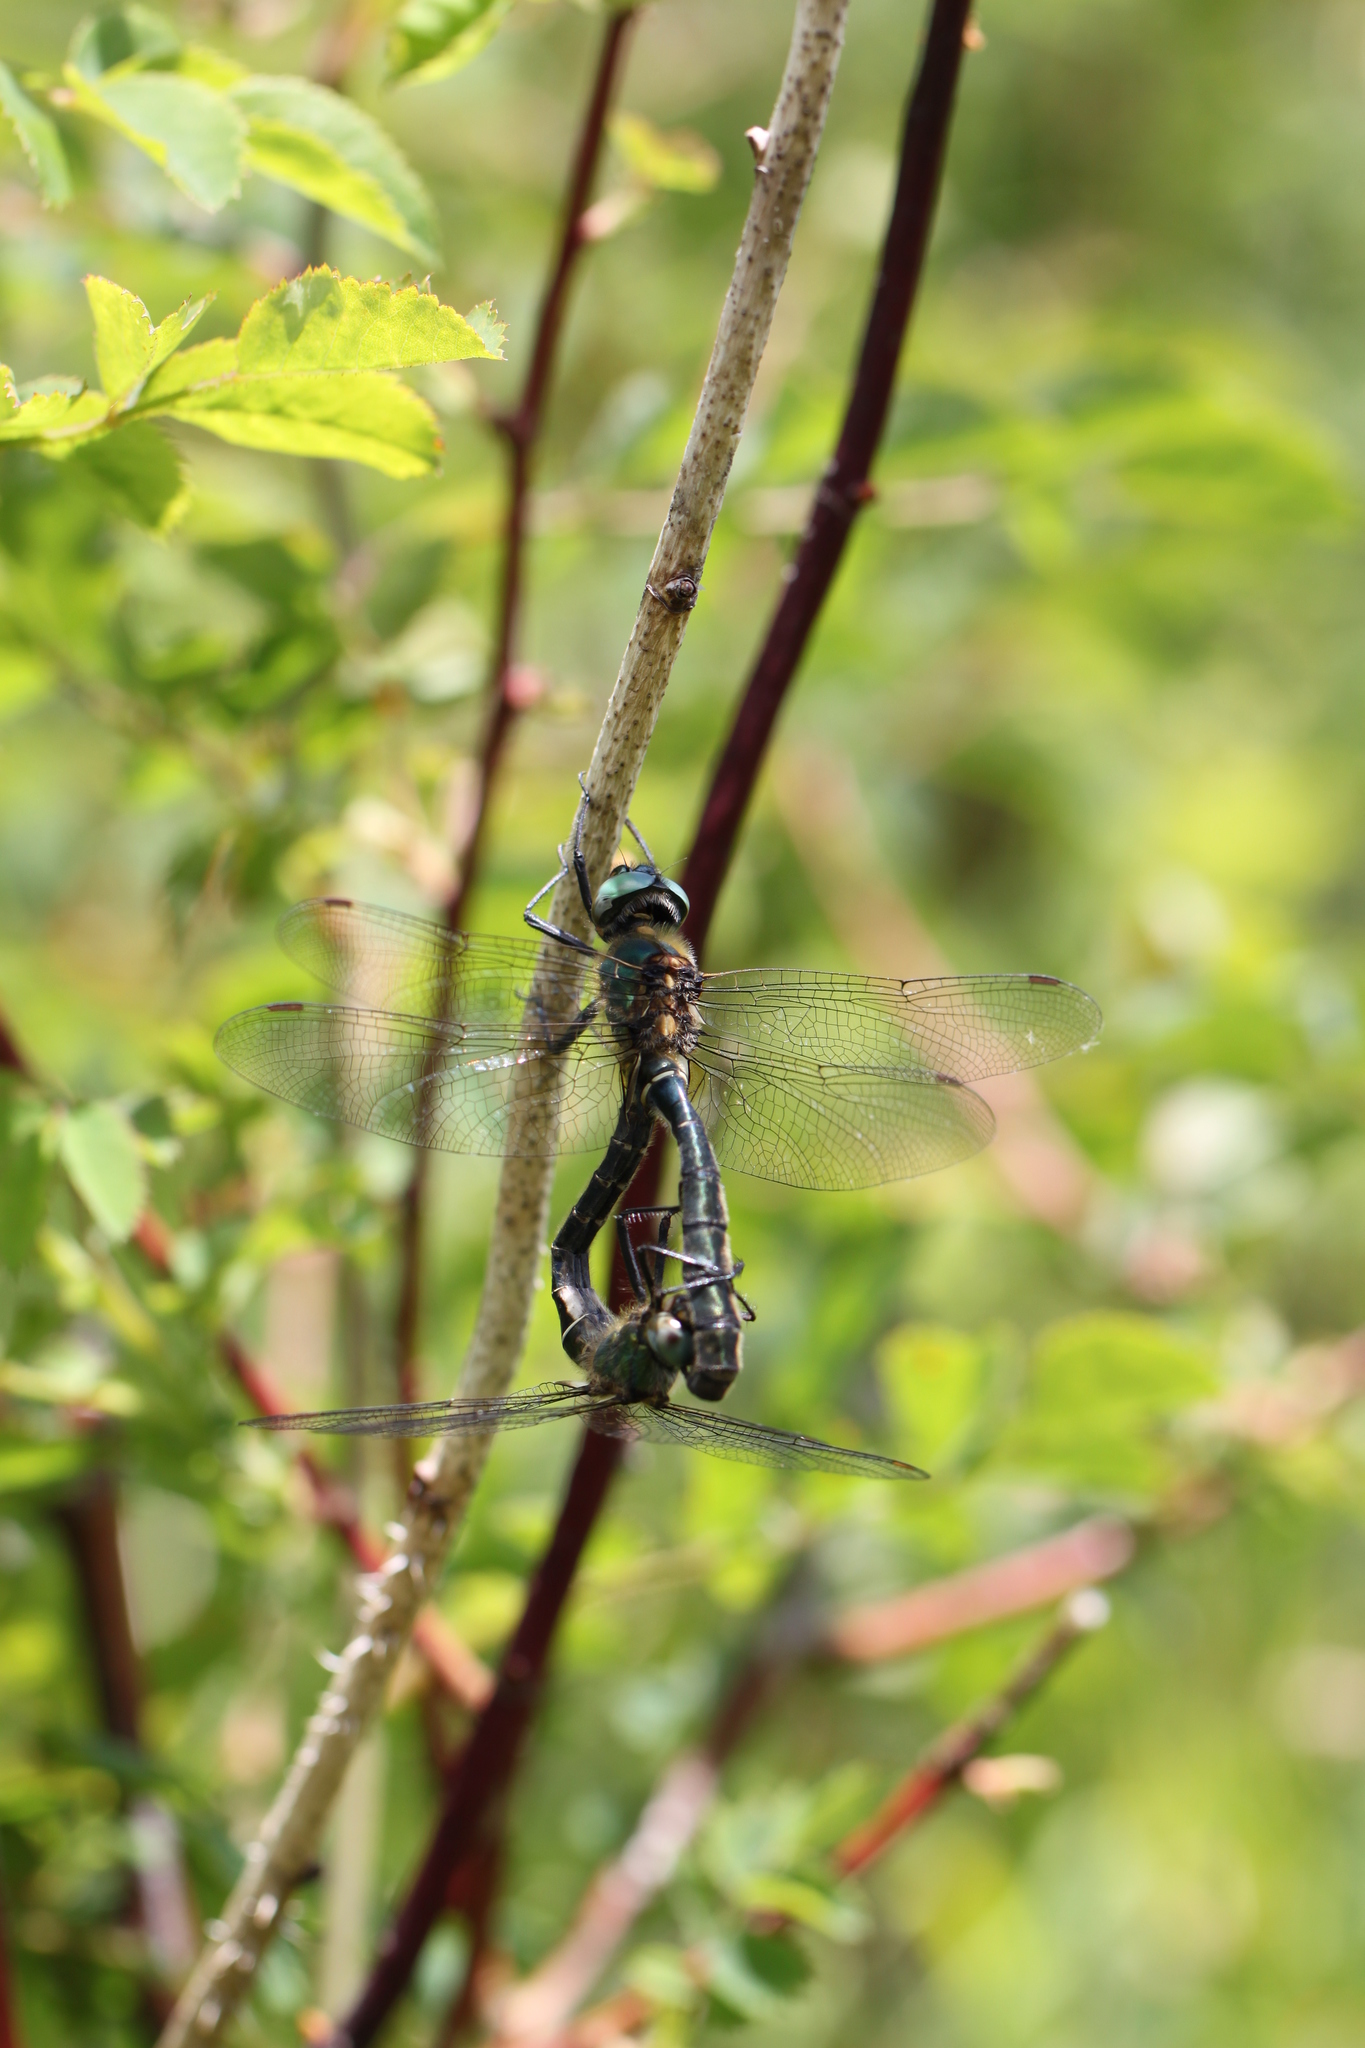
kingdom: Animalia
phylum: Arthropoda
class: Insecta
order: Odonata
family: Corduliidae
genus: Somatochlora
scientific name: Somatochlora alpestris
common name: Alpine emerald
